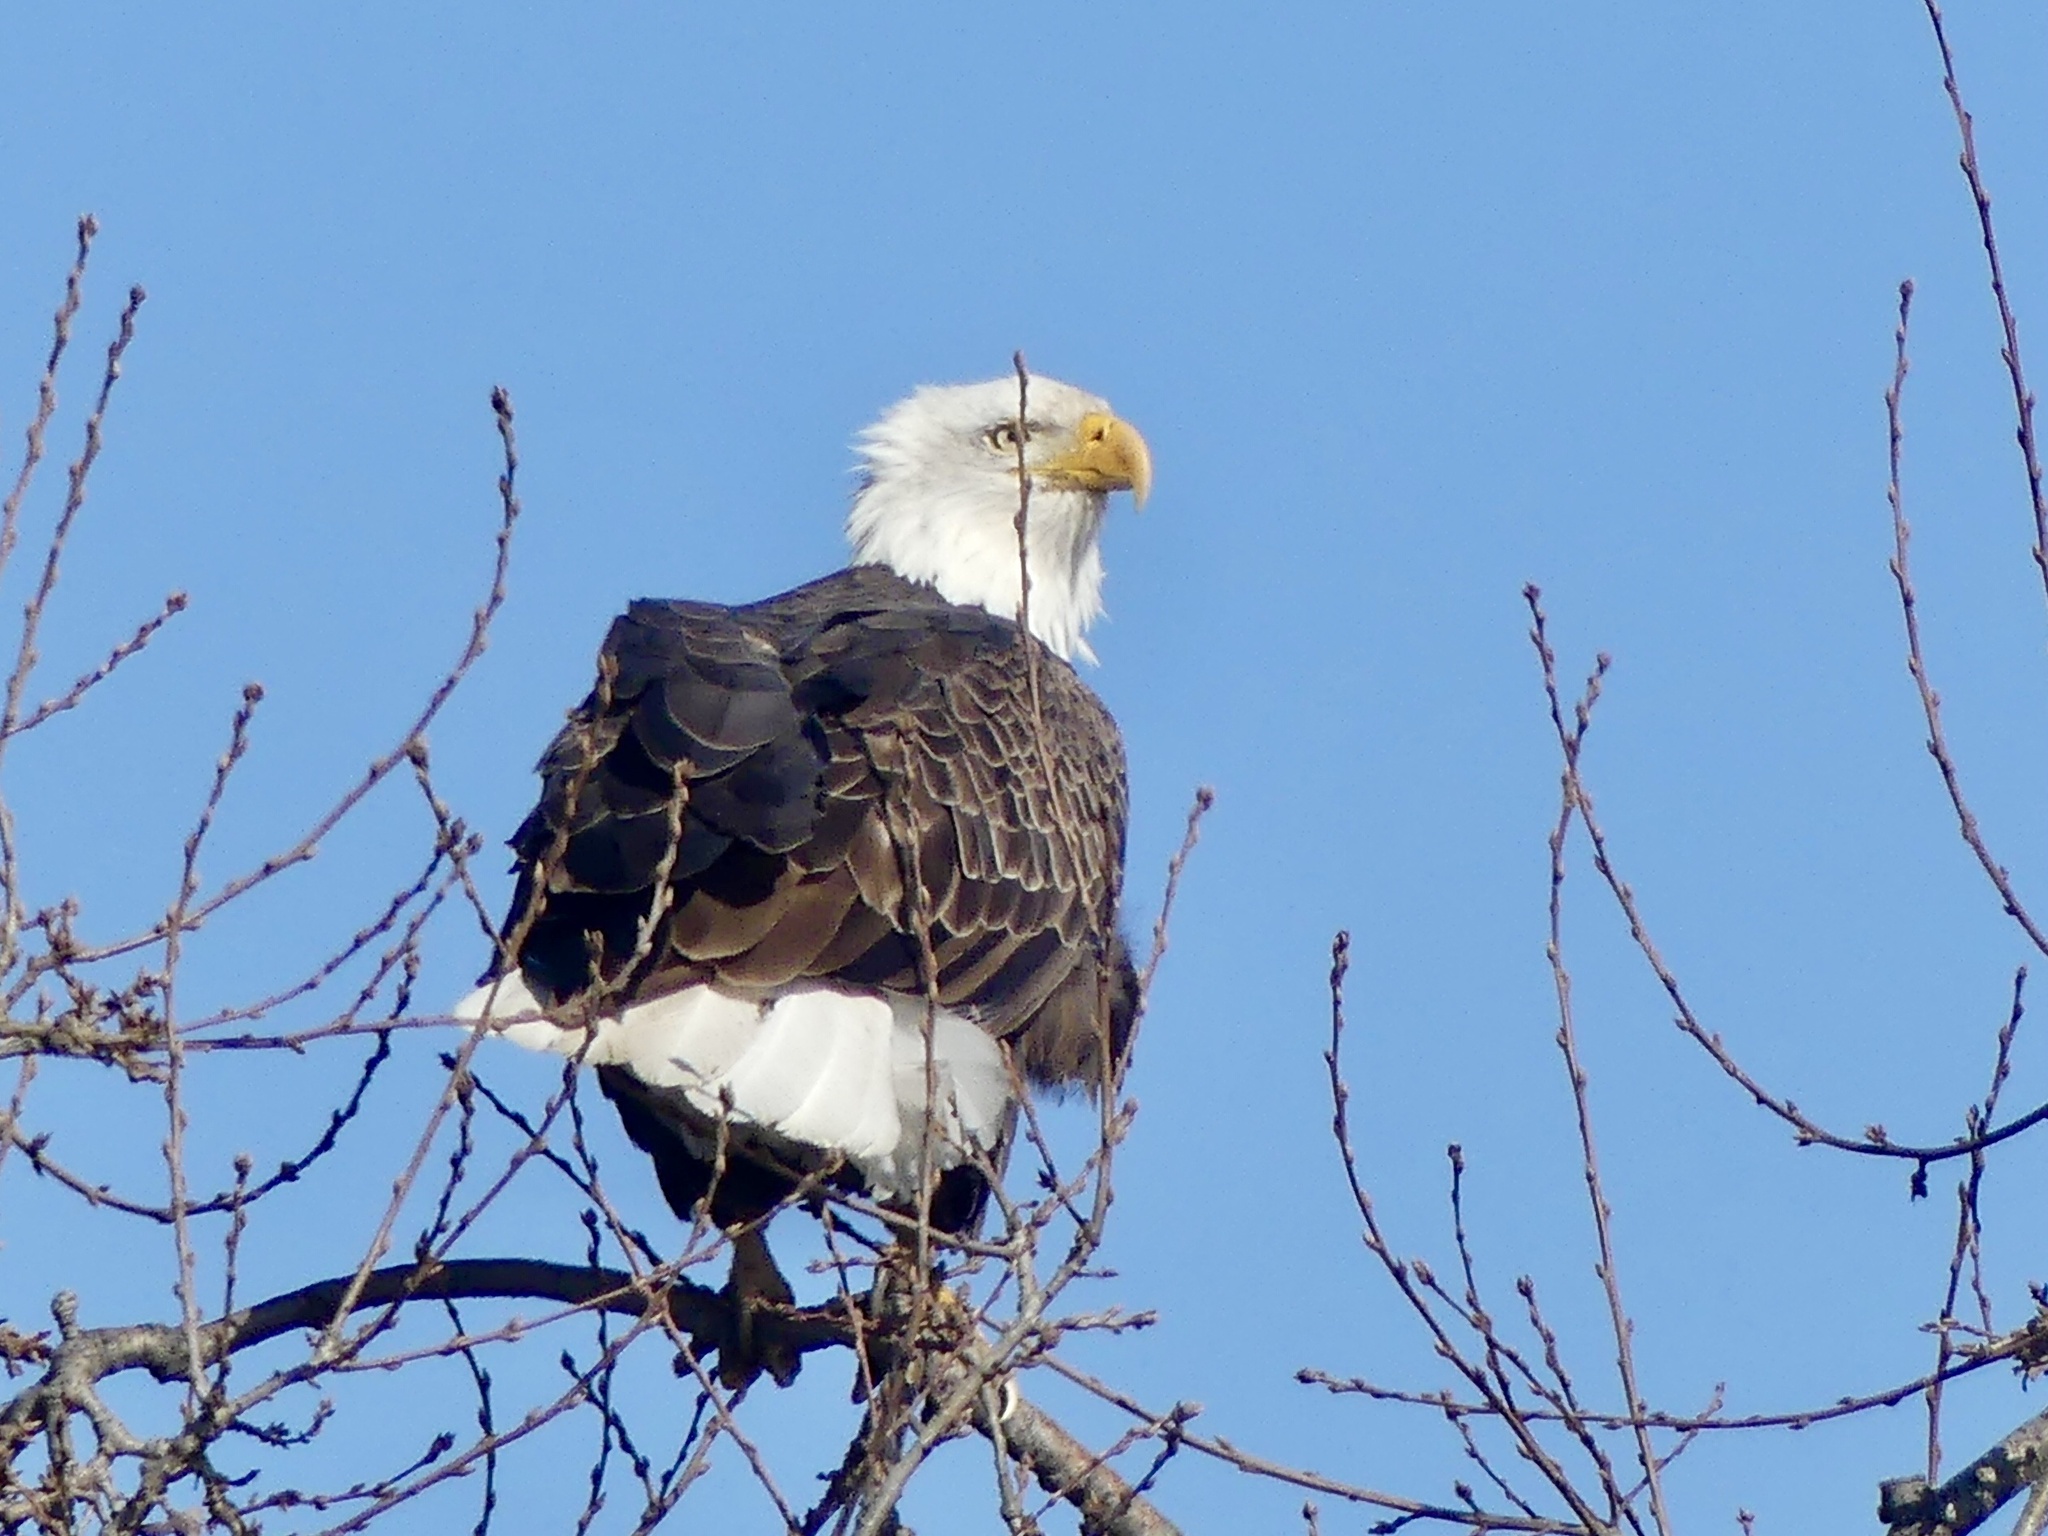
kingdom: Animalia
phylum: Chordata
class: Aves
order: Accipitriformes
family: Accipitridae
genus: Haliaeetus
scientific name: Haliaeetus leucocephalus
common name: Bald eagle
